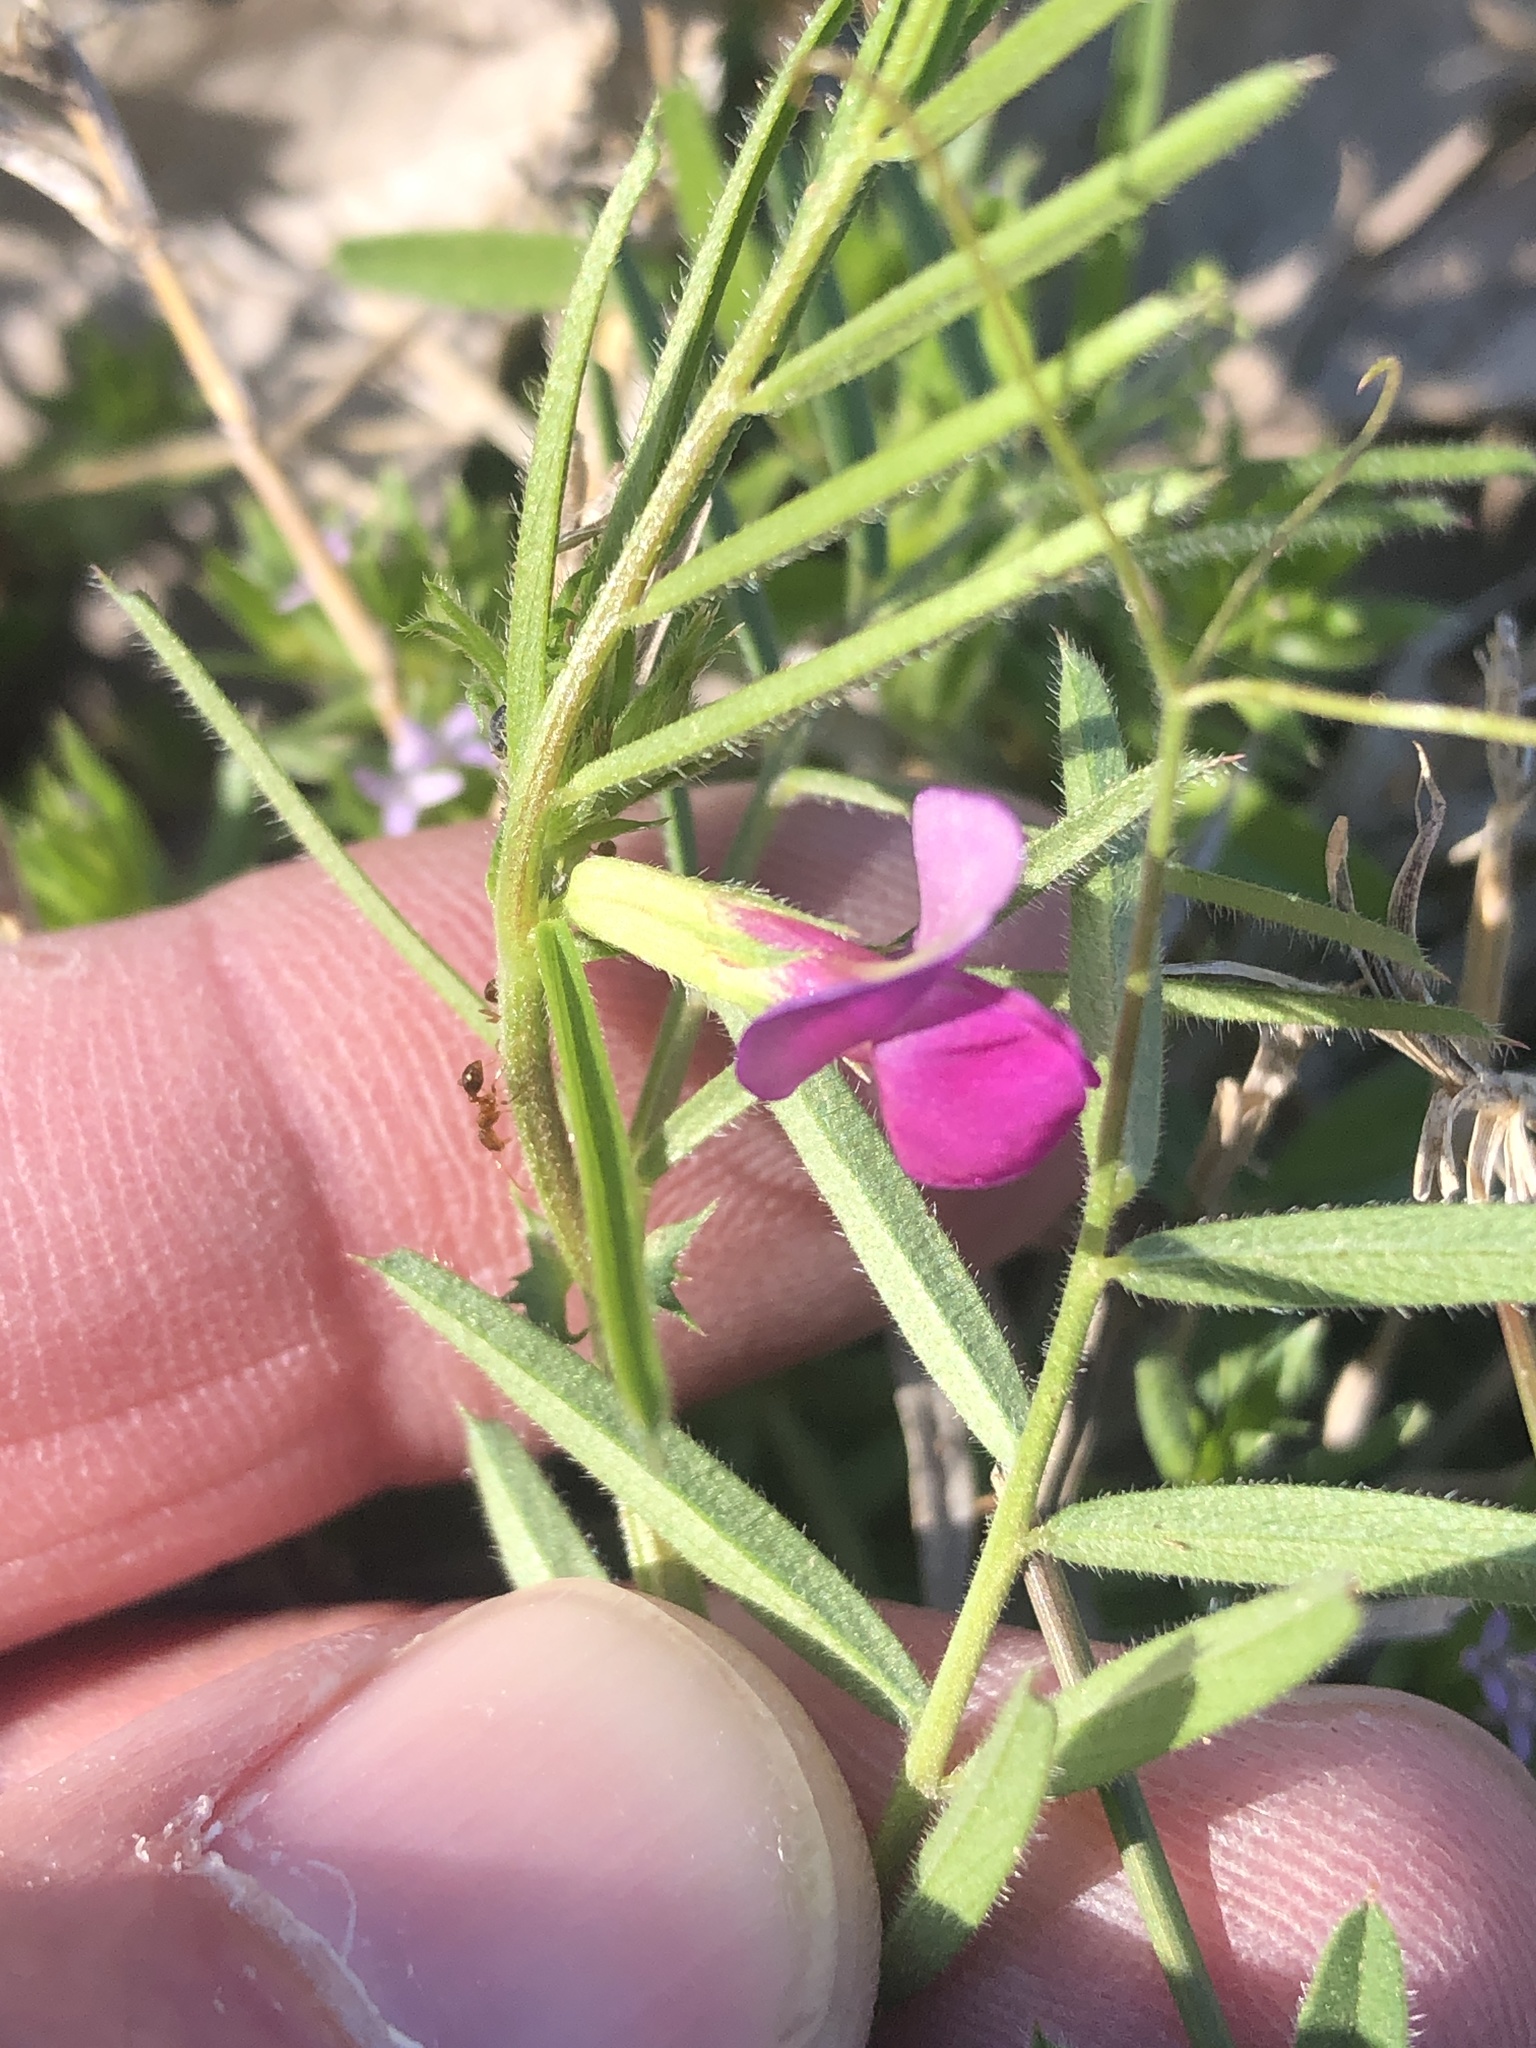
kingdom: Plantae
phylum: Tracheophyta
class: Magnoliopsida
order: Fabales
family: Fabaceae
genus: Vicia
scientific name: Vicia sativa
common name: Garden vetch
